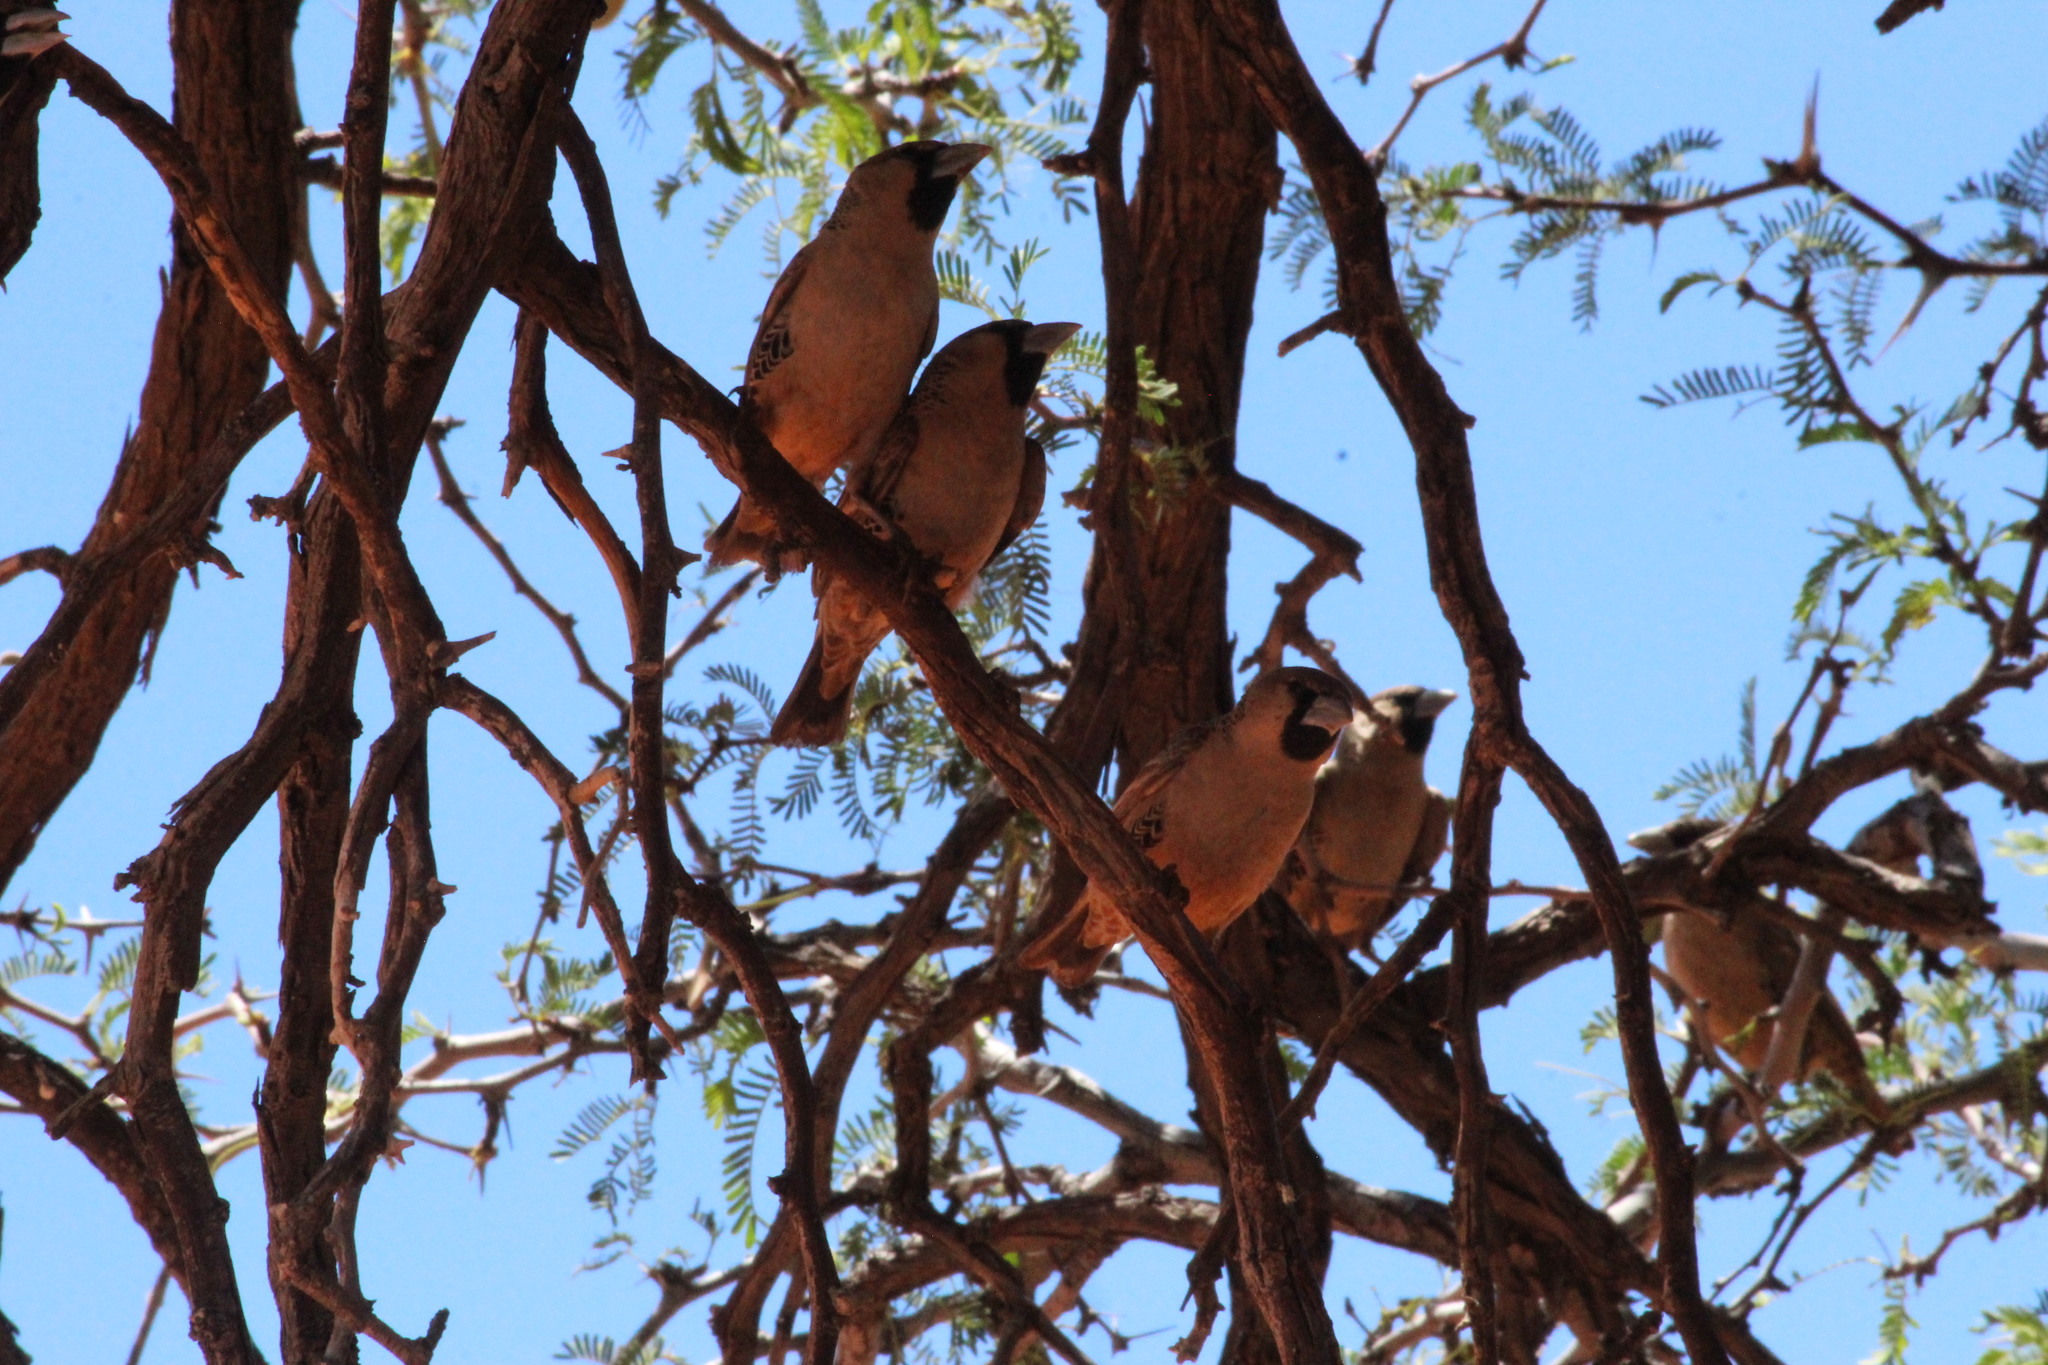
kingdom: Animalia
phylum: Chordata
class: Aves
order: Passeriformes
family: Passeridae
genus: Philetairus
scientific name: Philetairus socius
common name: Sociable weaver
